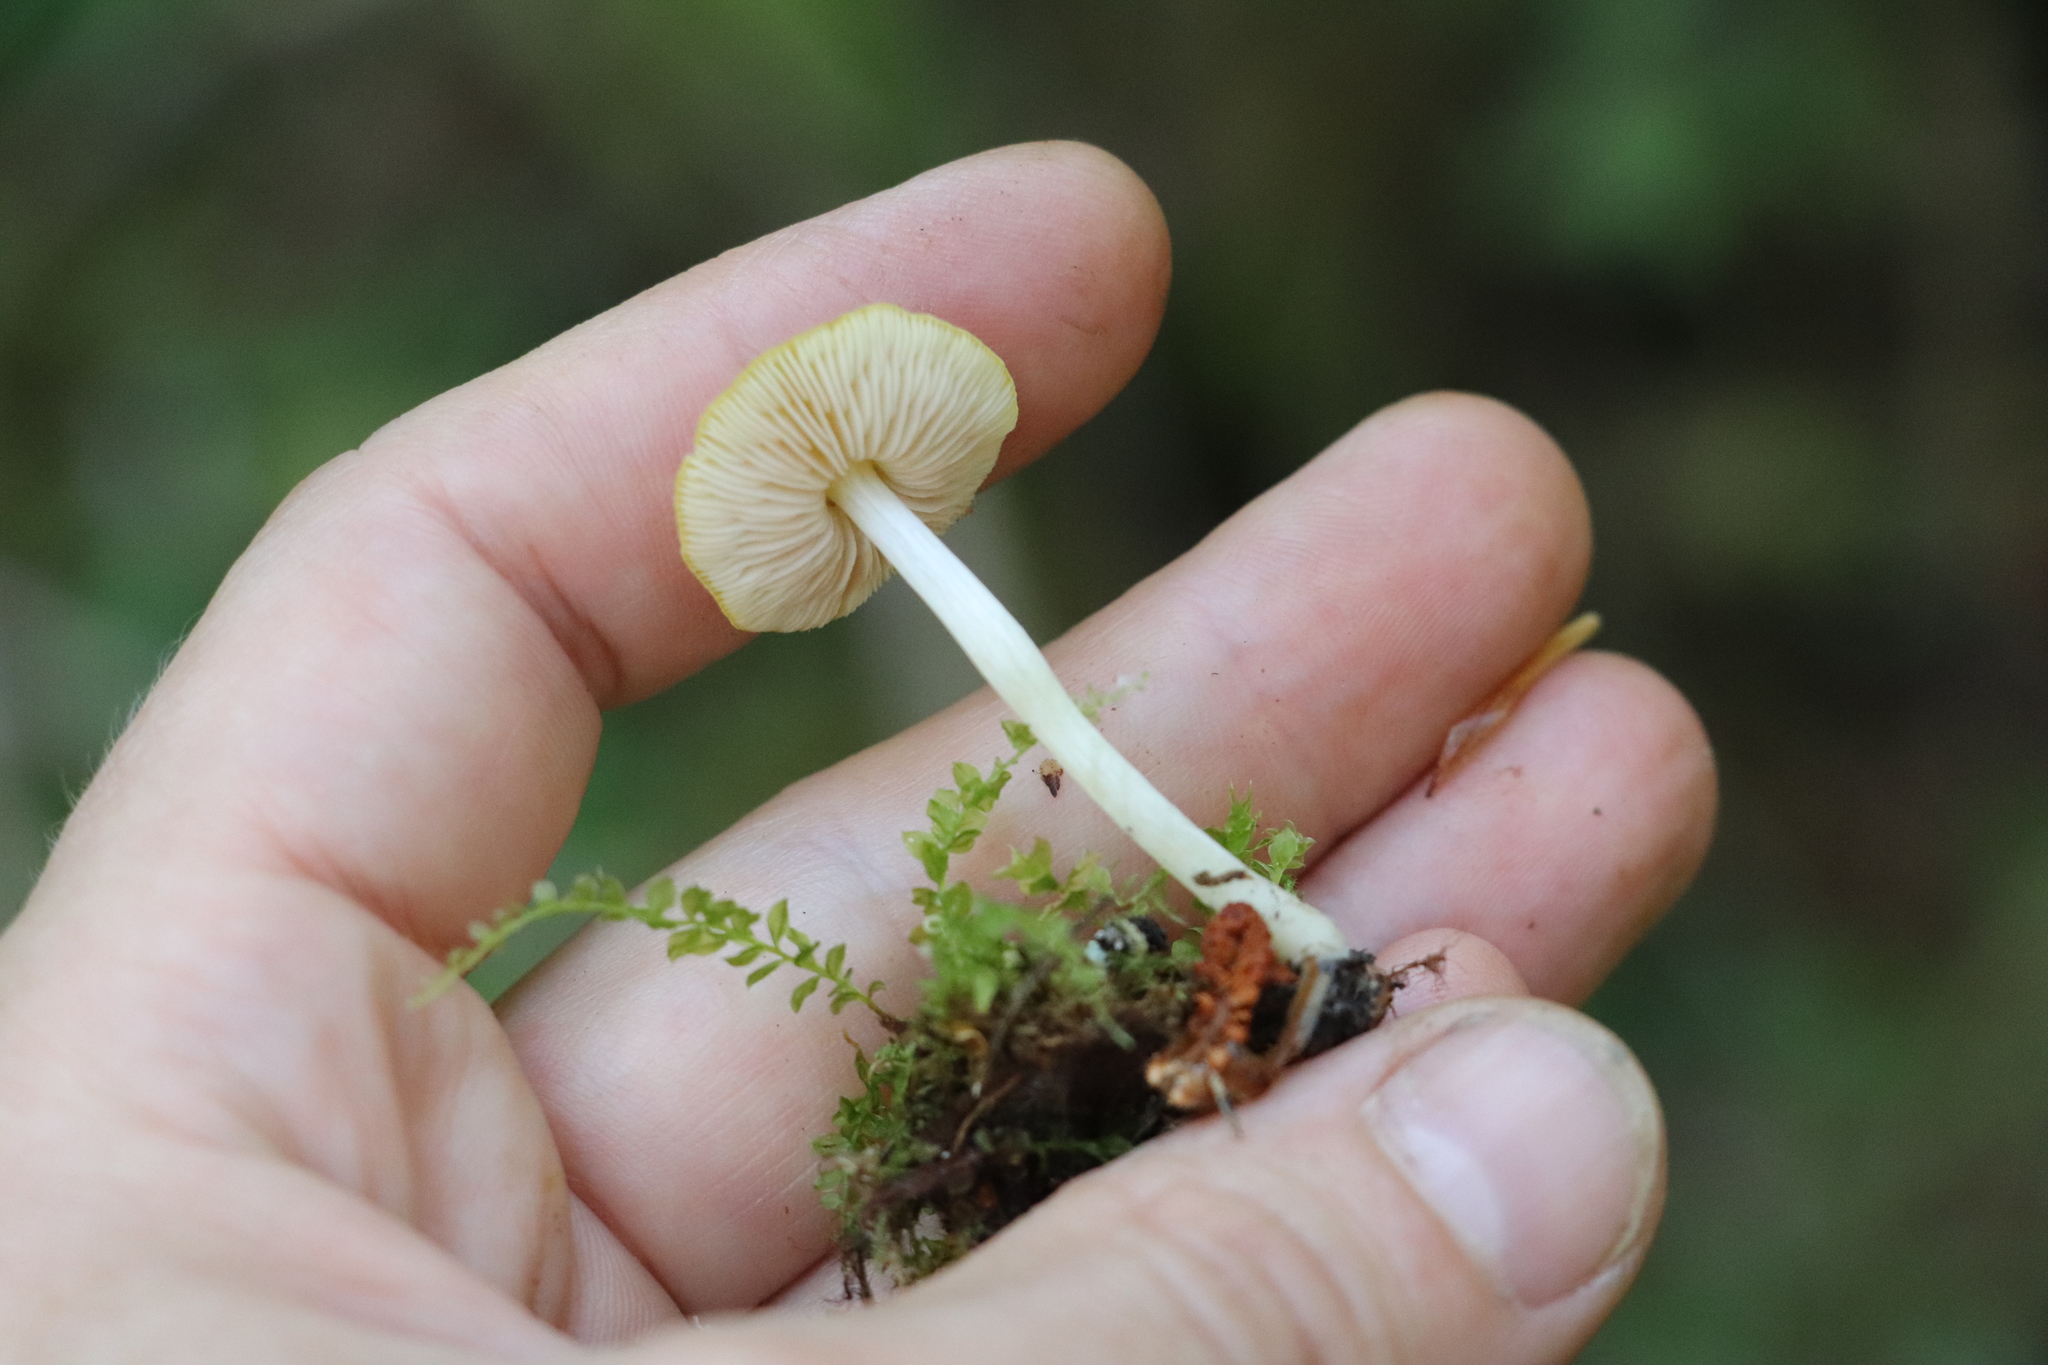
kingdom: Fungi
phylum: Basidiomycota
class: Agaricomycetes
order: Agaricales
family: Pluteaceae
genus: Pluteus
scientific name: Pluteus chrysophlebius
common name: Yellow deer mushroom
